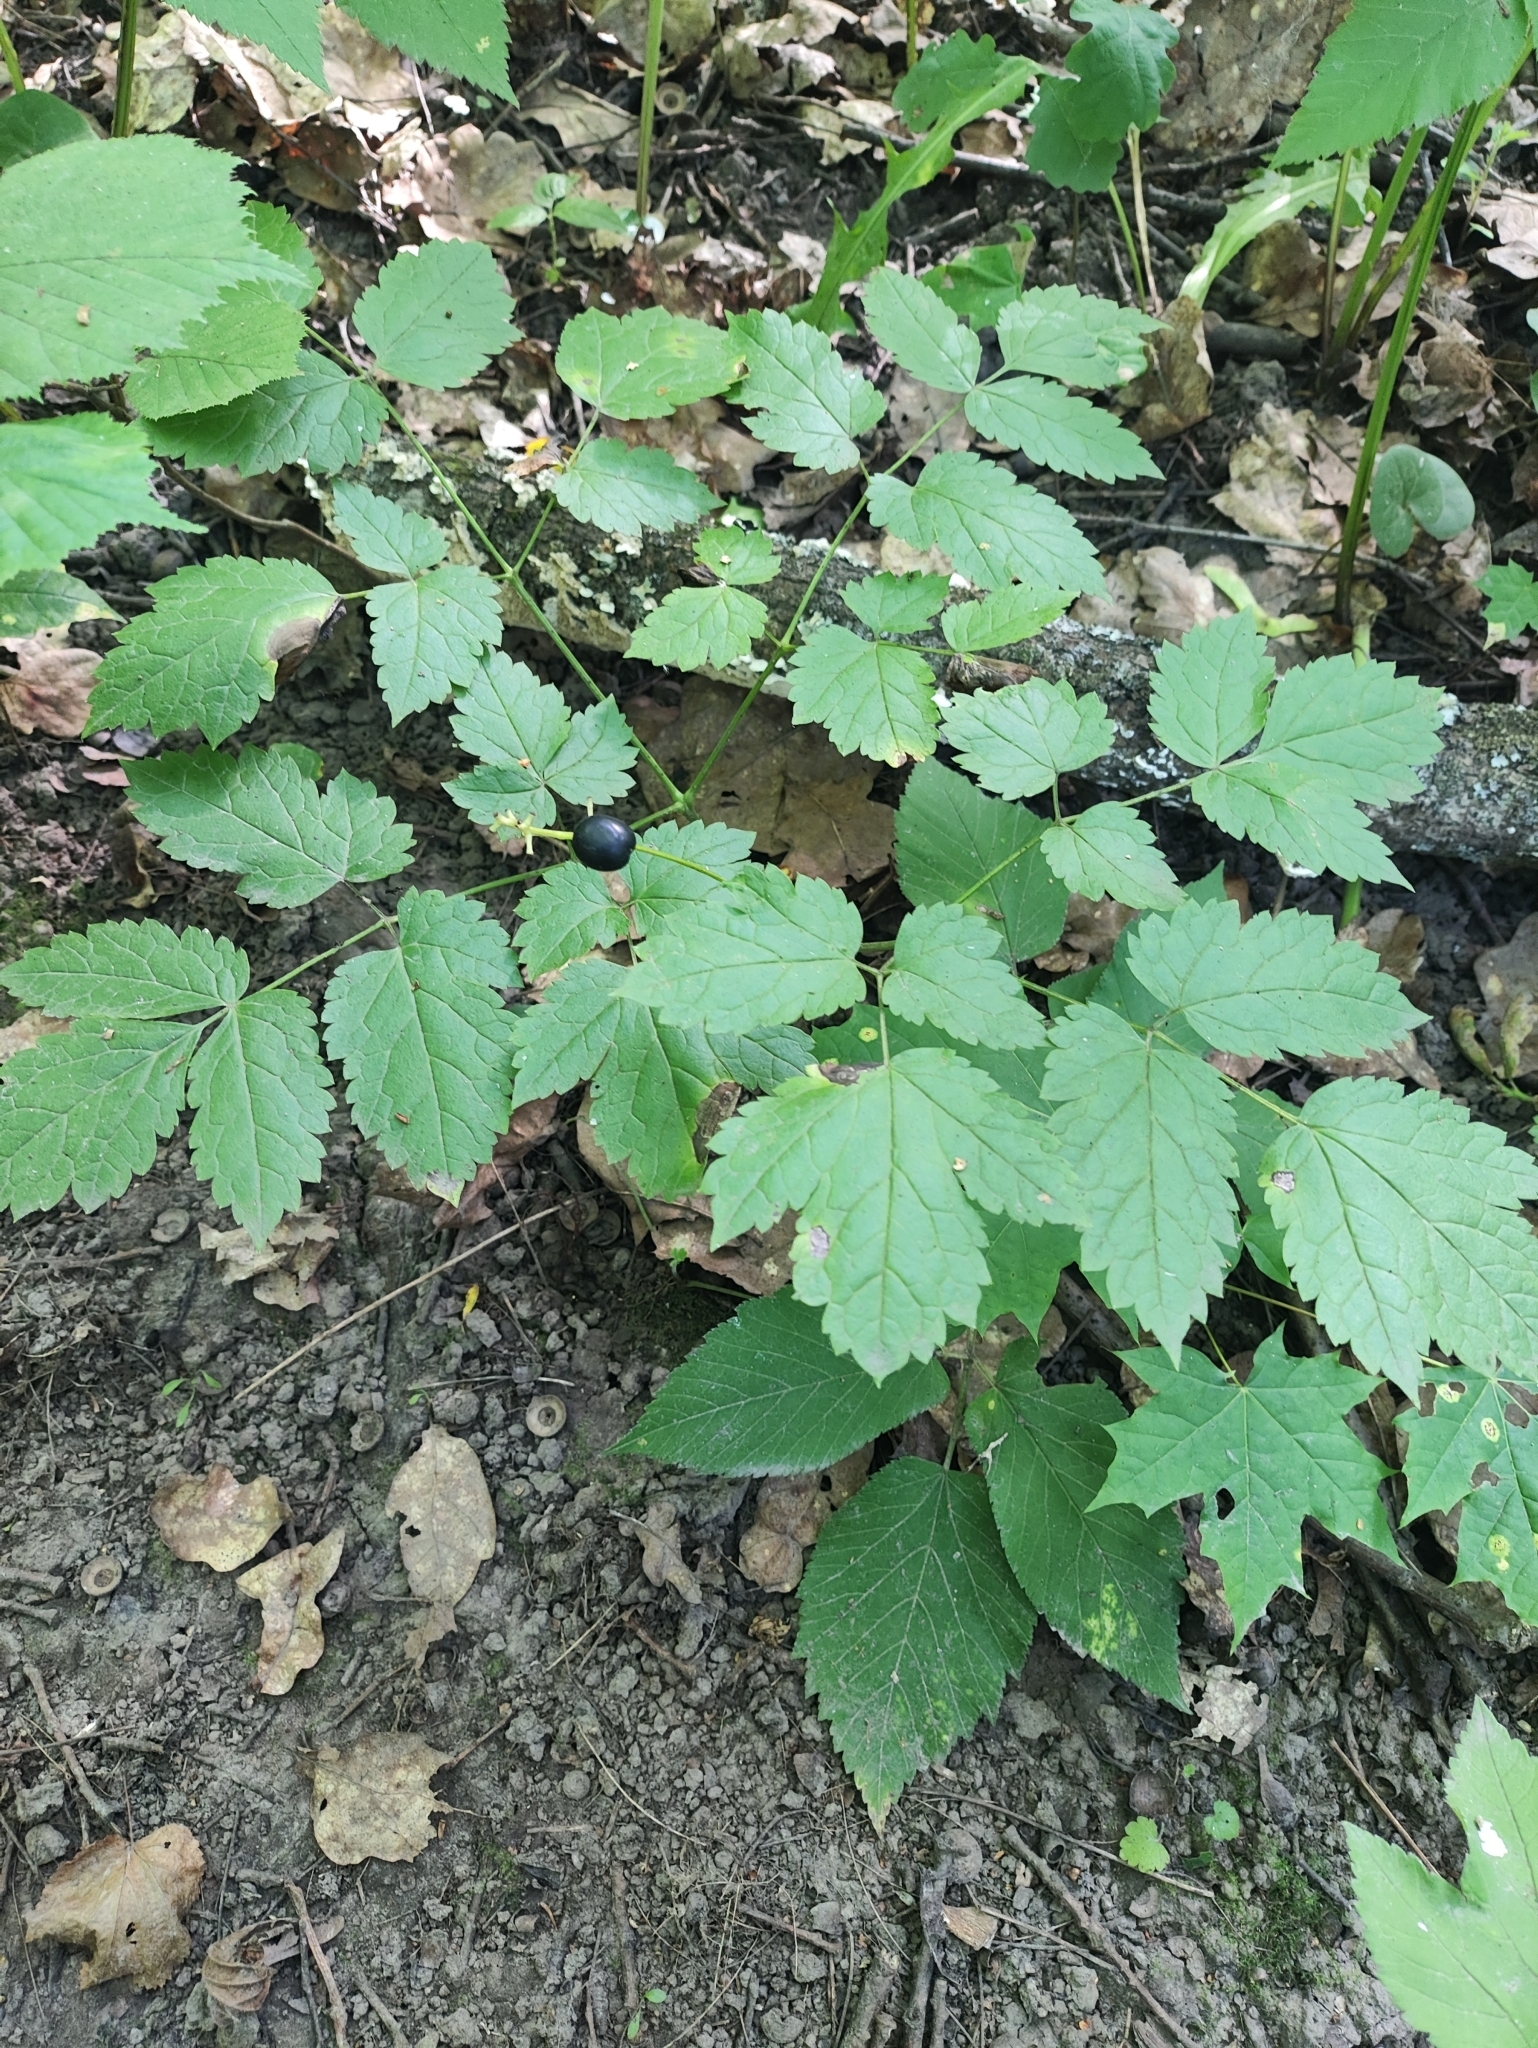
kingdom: Plantae
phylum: Tracheophyta
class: Magnoliopsida
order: Ranunculales
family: Ranunculaceae
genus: Actaea
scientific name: Actaea spicata
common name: Baneberry
